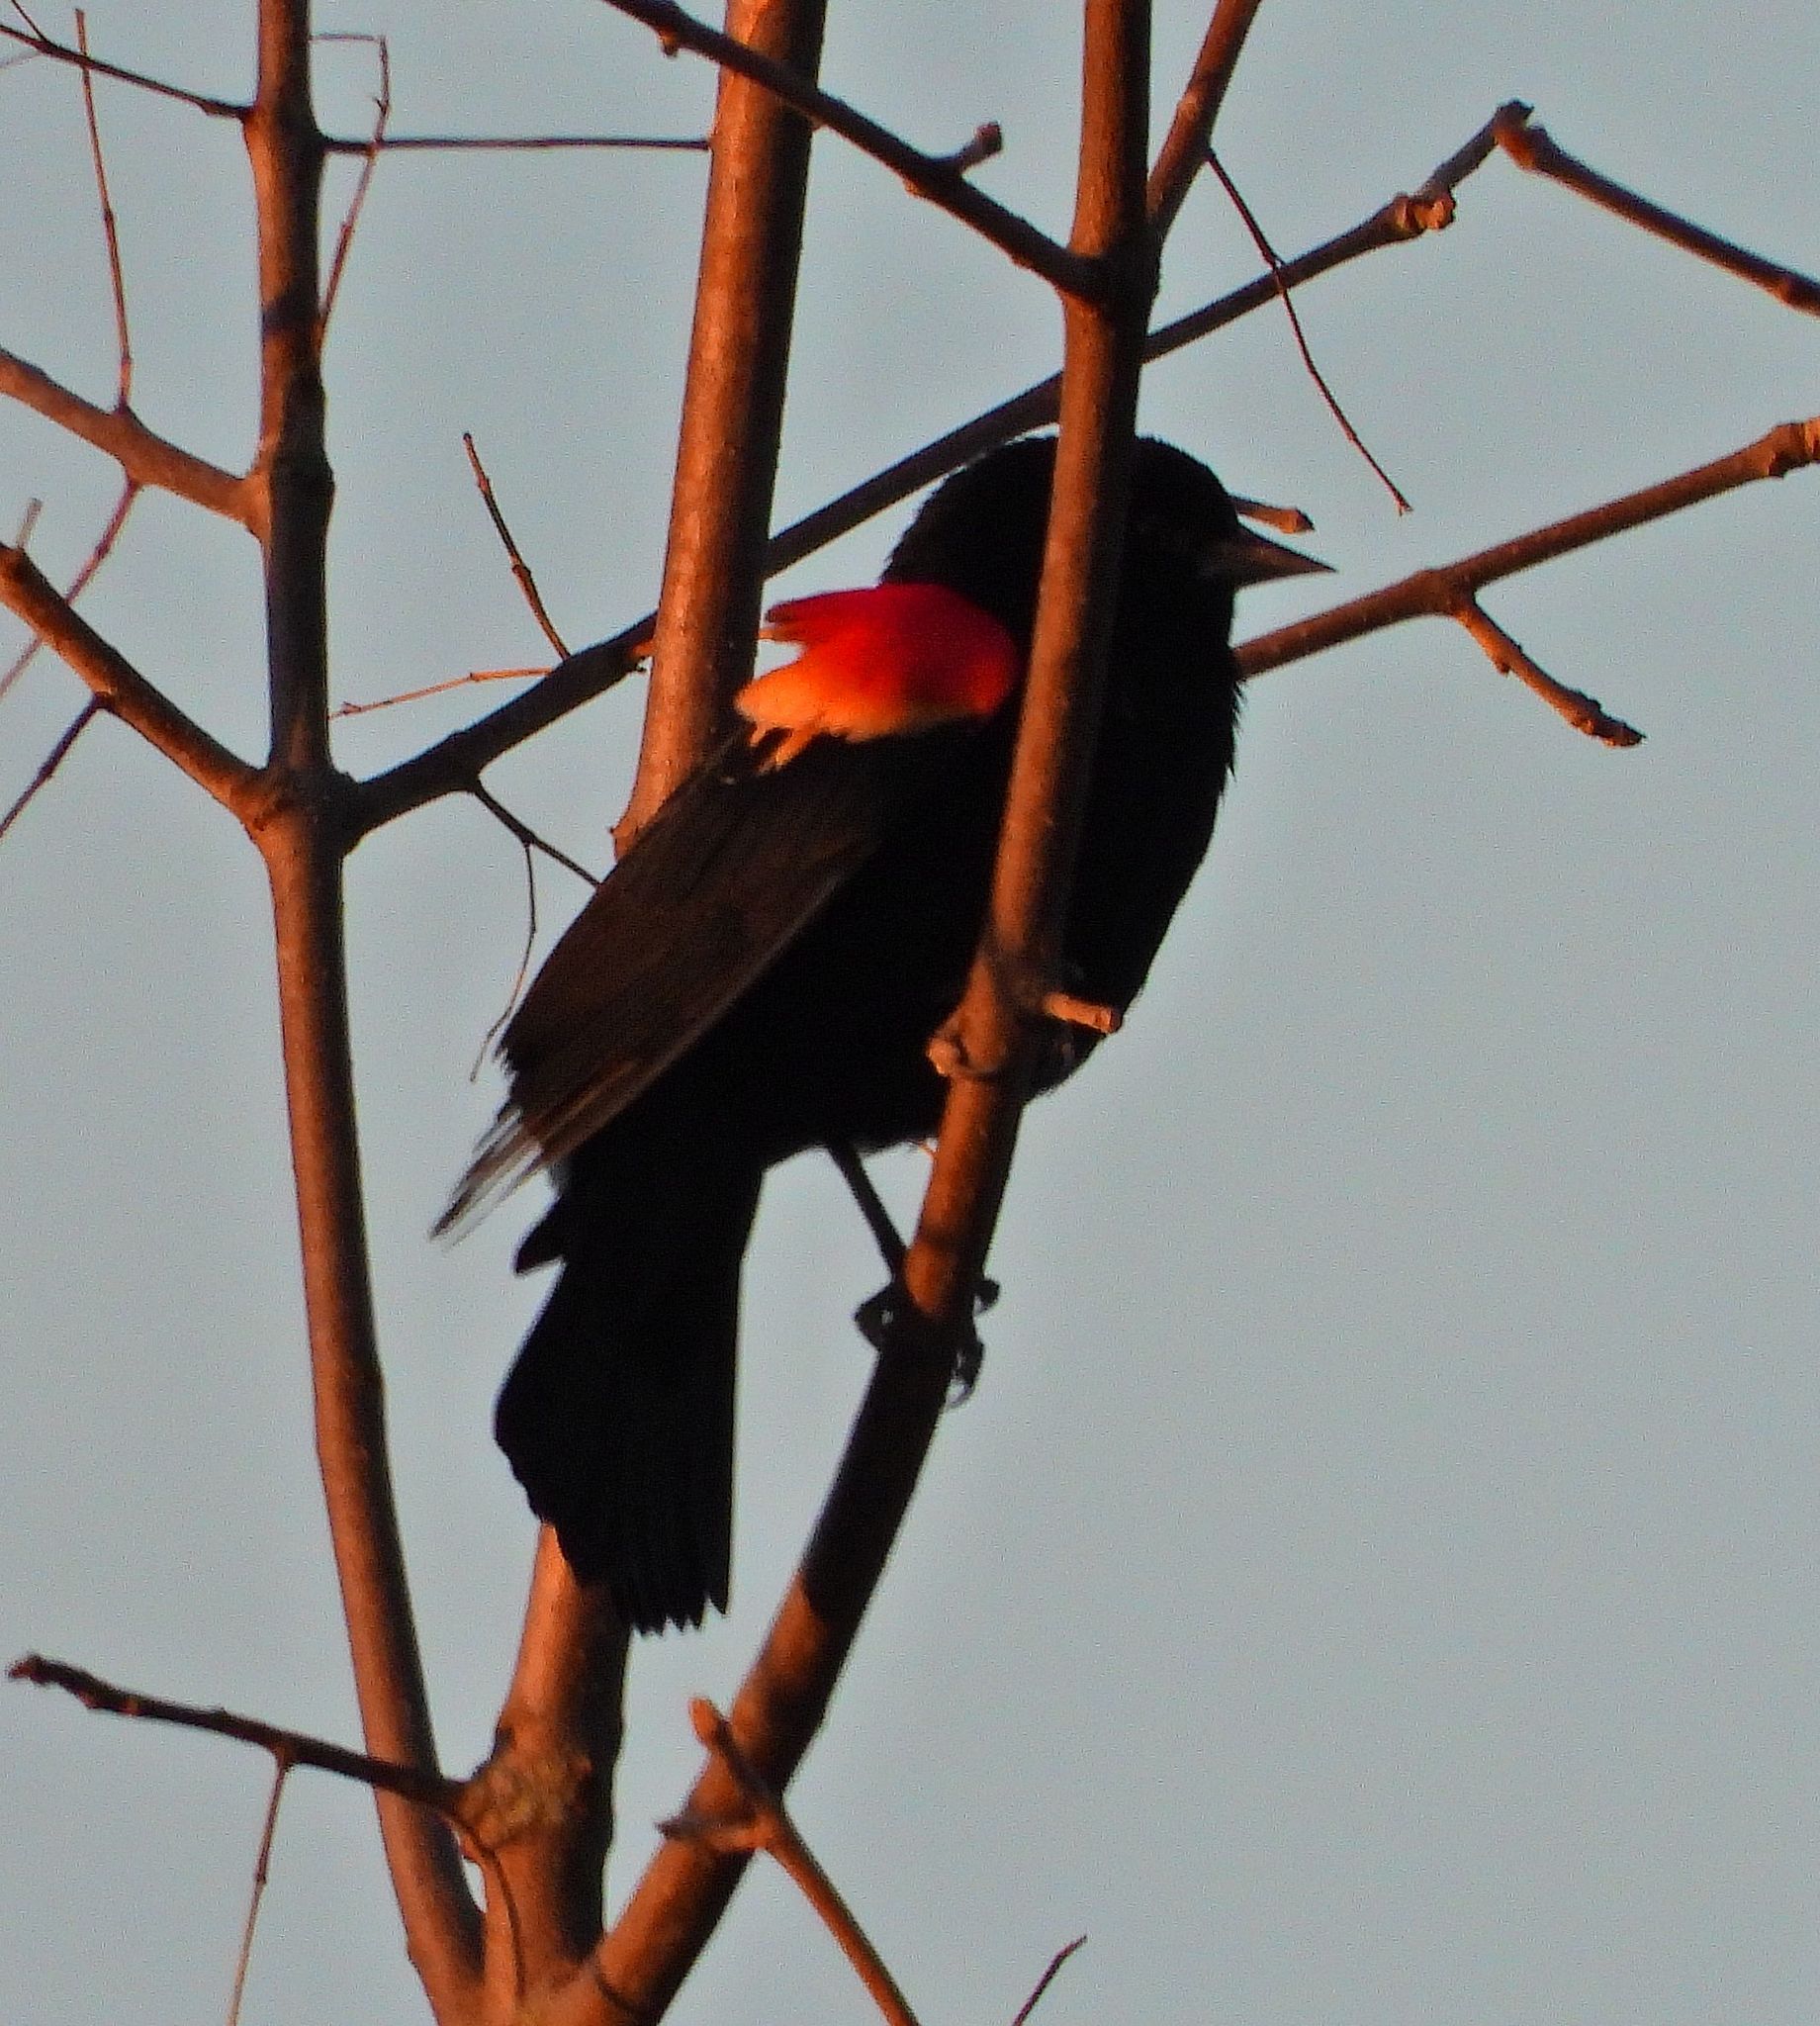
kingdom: Animalia
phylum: Chordata
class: Aves
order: Passeriformes
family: Icteridae
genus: Agelaius
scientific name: Agelaius phoeniceus
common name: Red-winged blackbird
